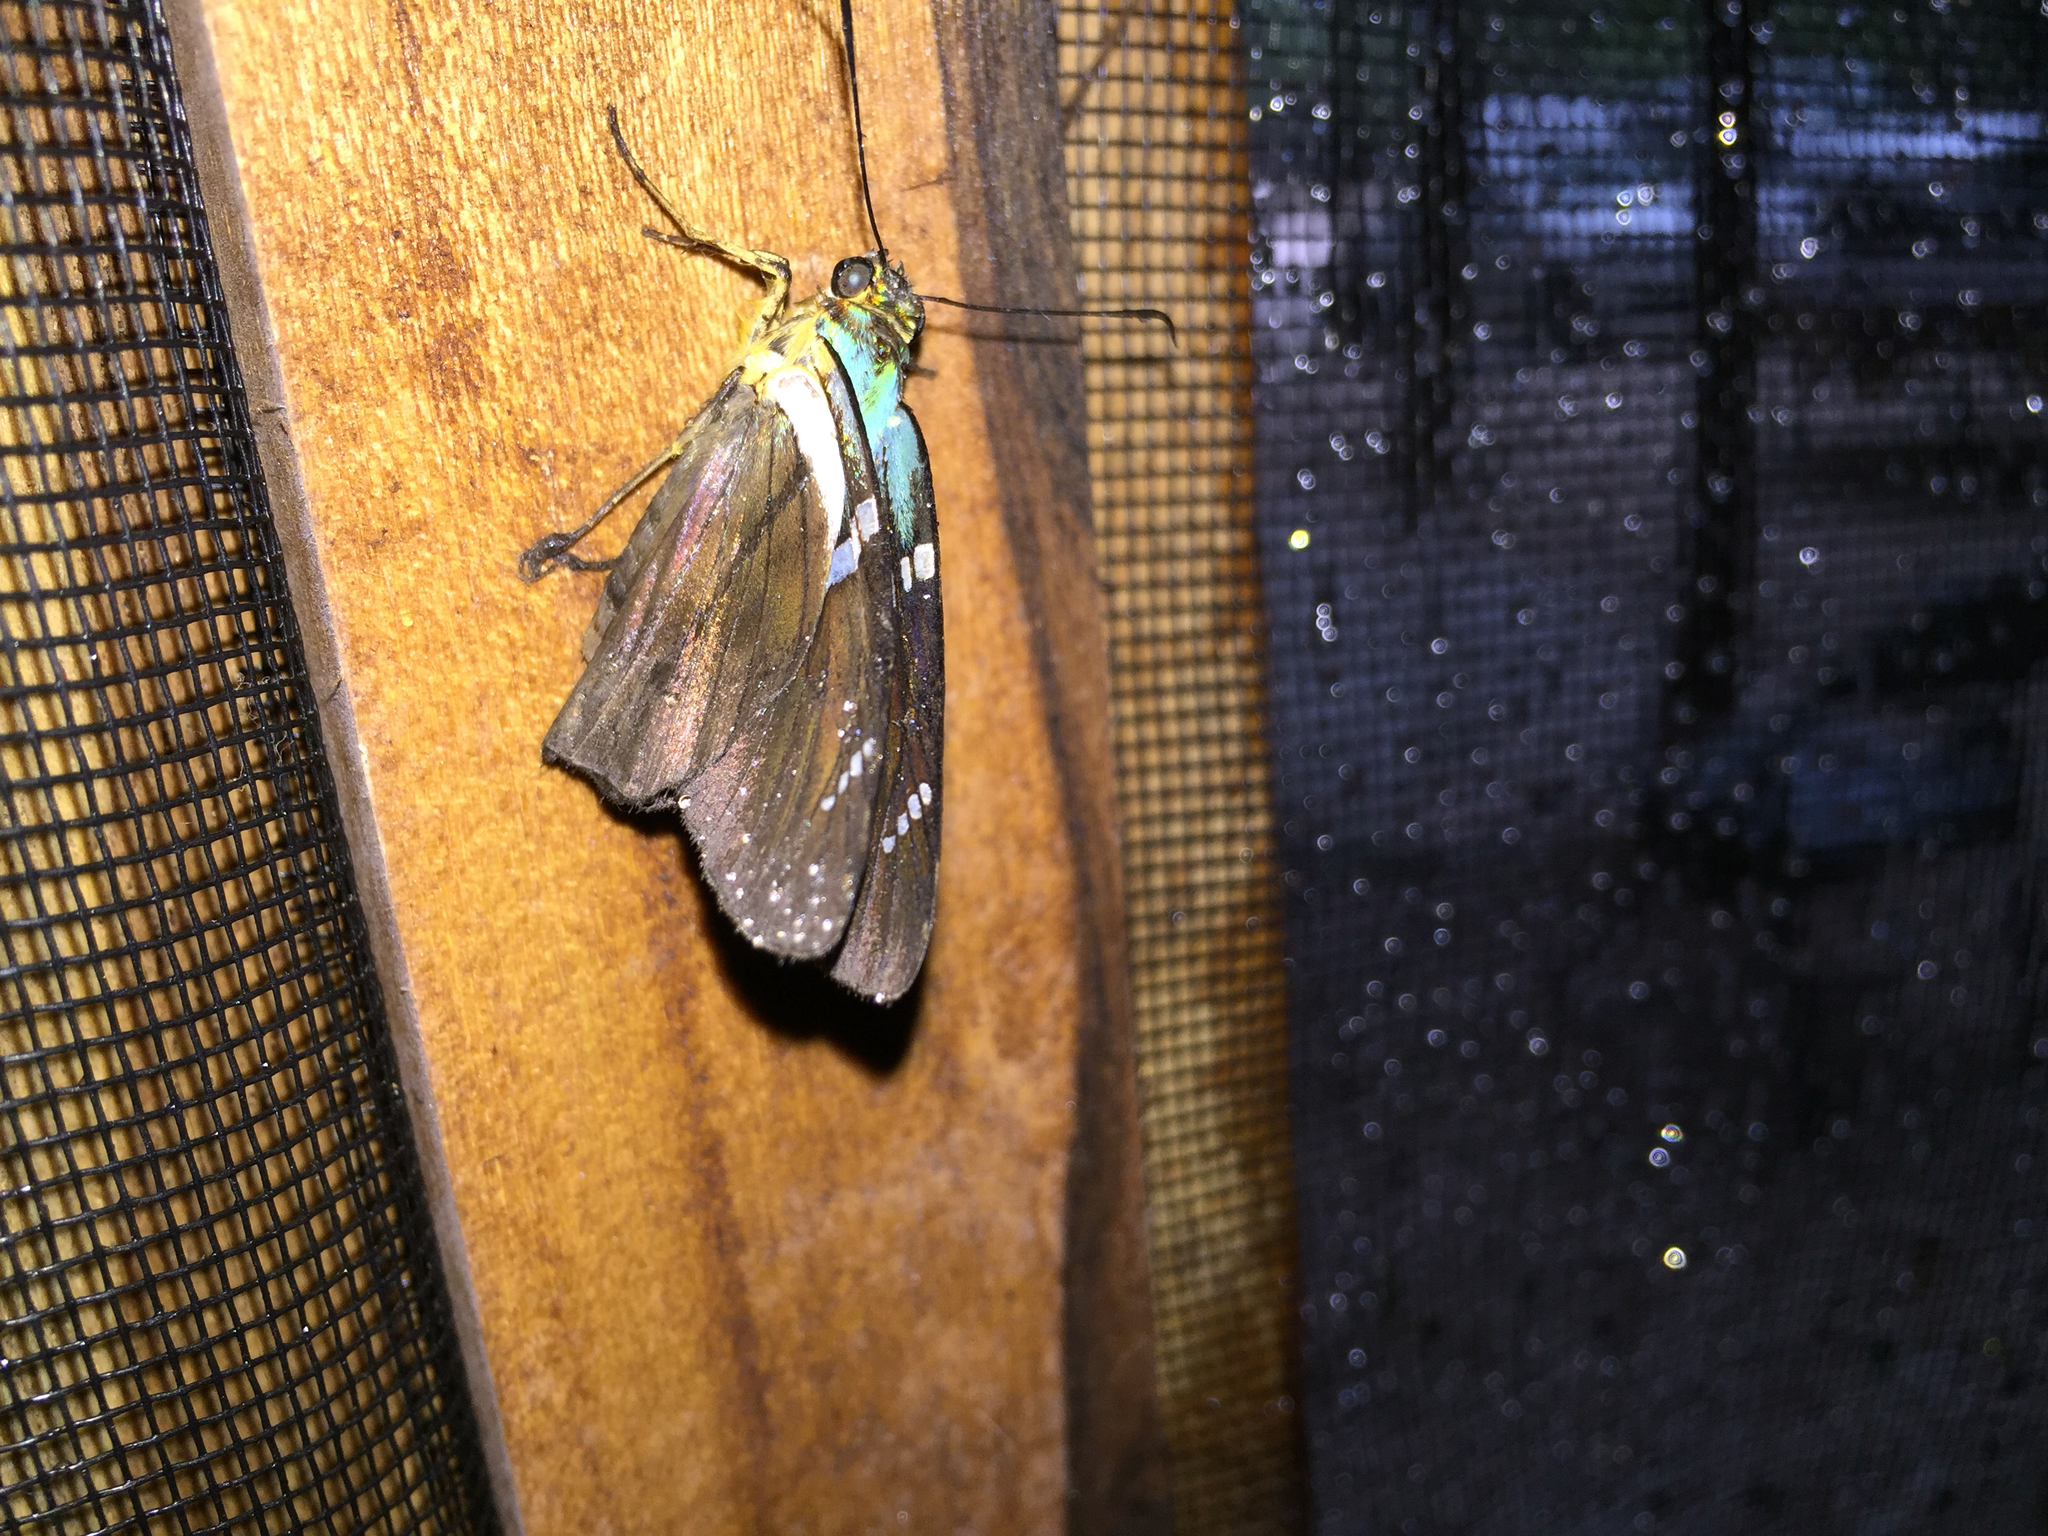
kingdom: Animalia
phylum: Arthropoda
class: Insecta
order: Lepidoptera
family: Hesperiidae
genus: Astraptes
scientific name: Astraptes fulgerator
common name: Two-barred flasher
